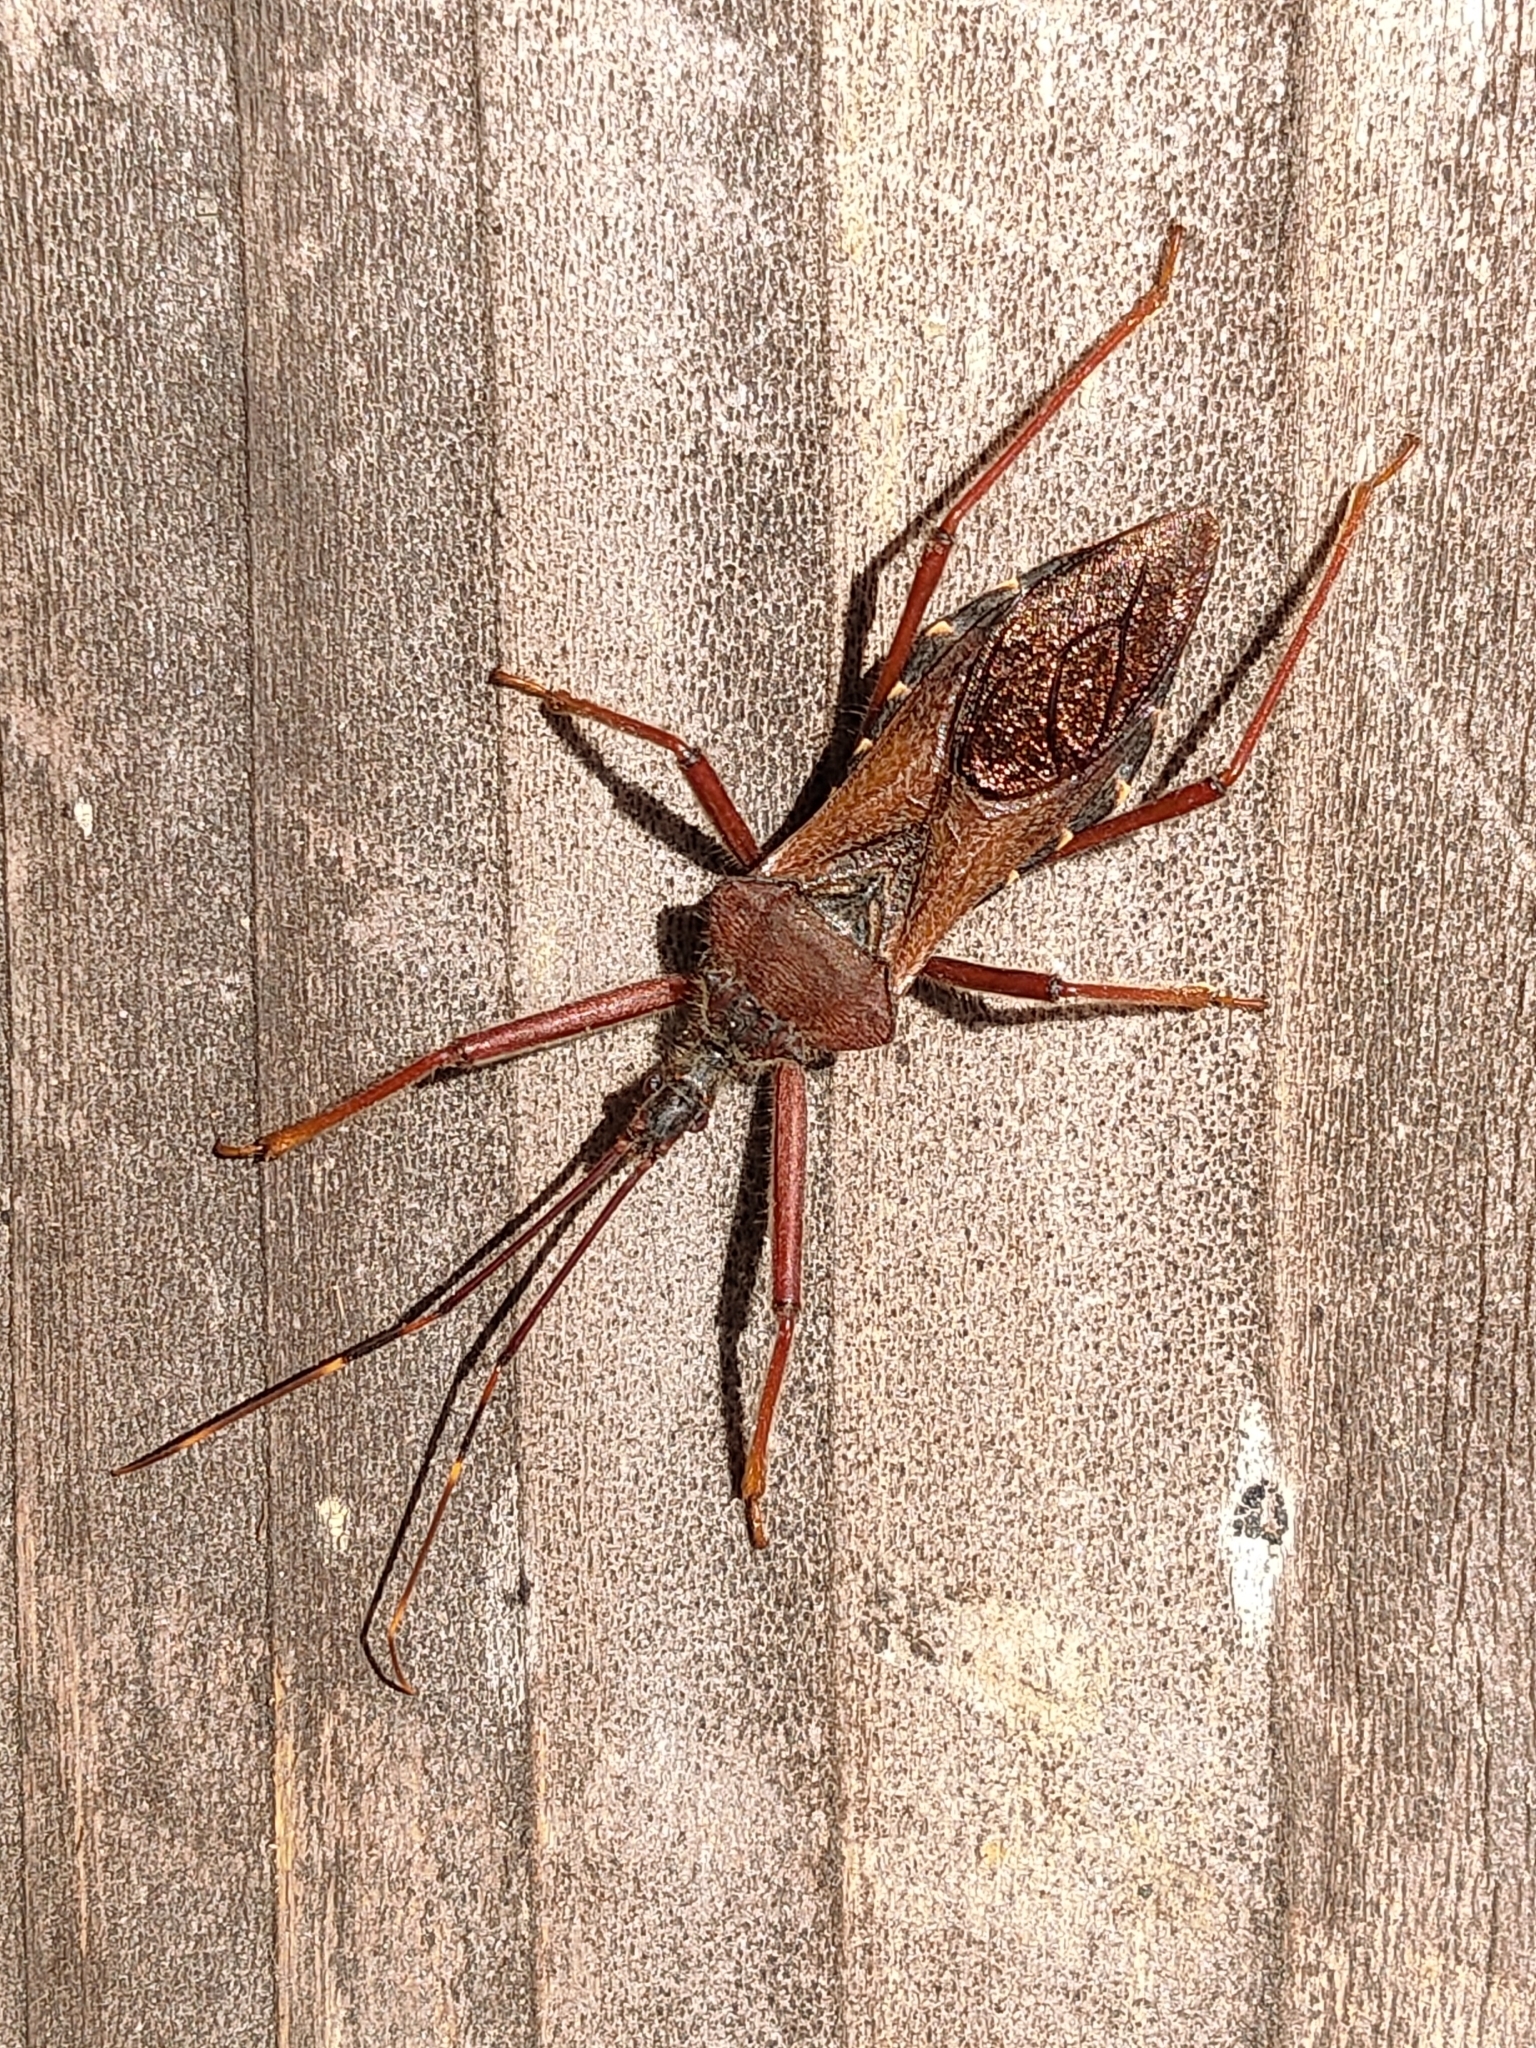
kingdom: Animalia
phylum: Arthropoda
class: Insecta
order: Hemiptera
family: Reduviidae
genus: Isyndus
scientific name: Isyndus obscurus
